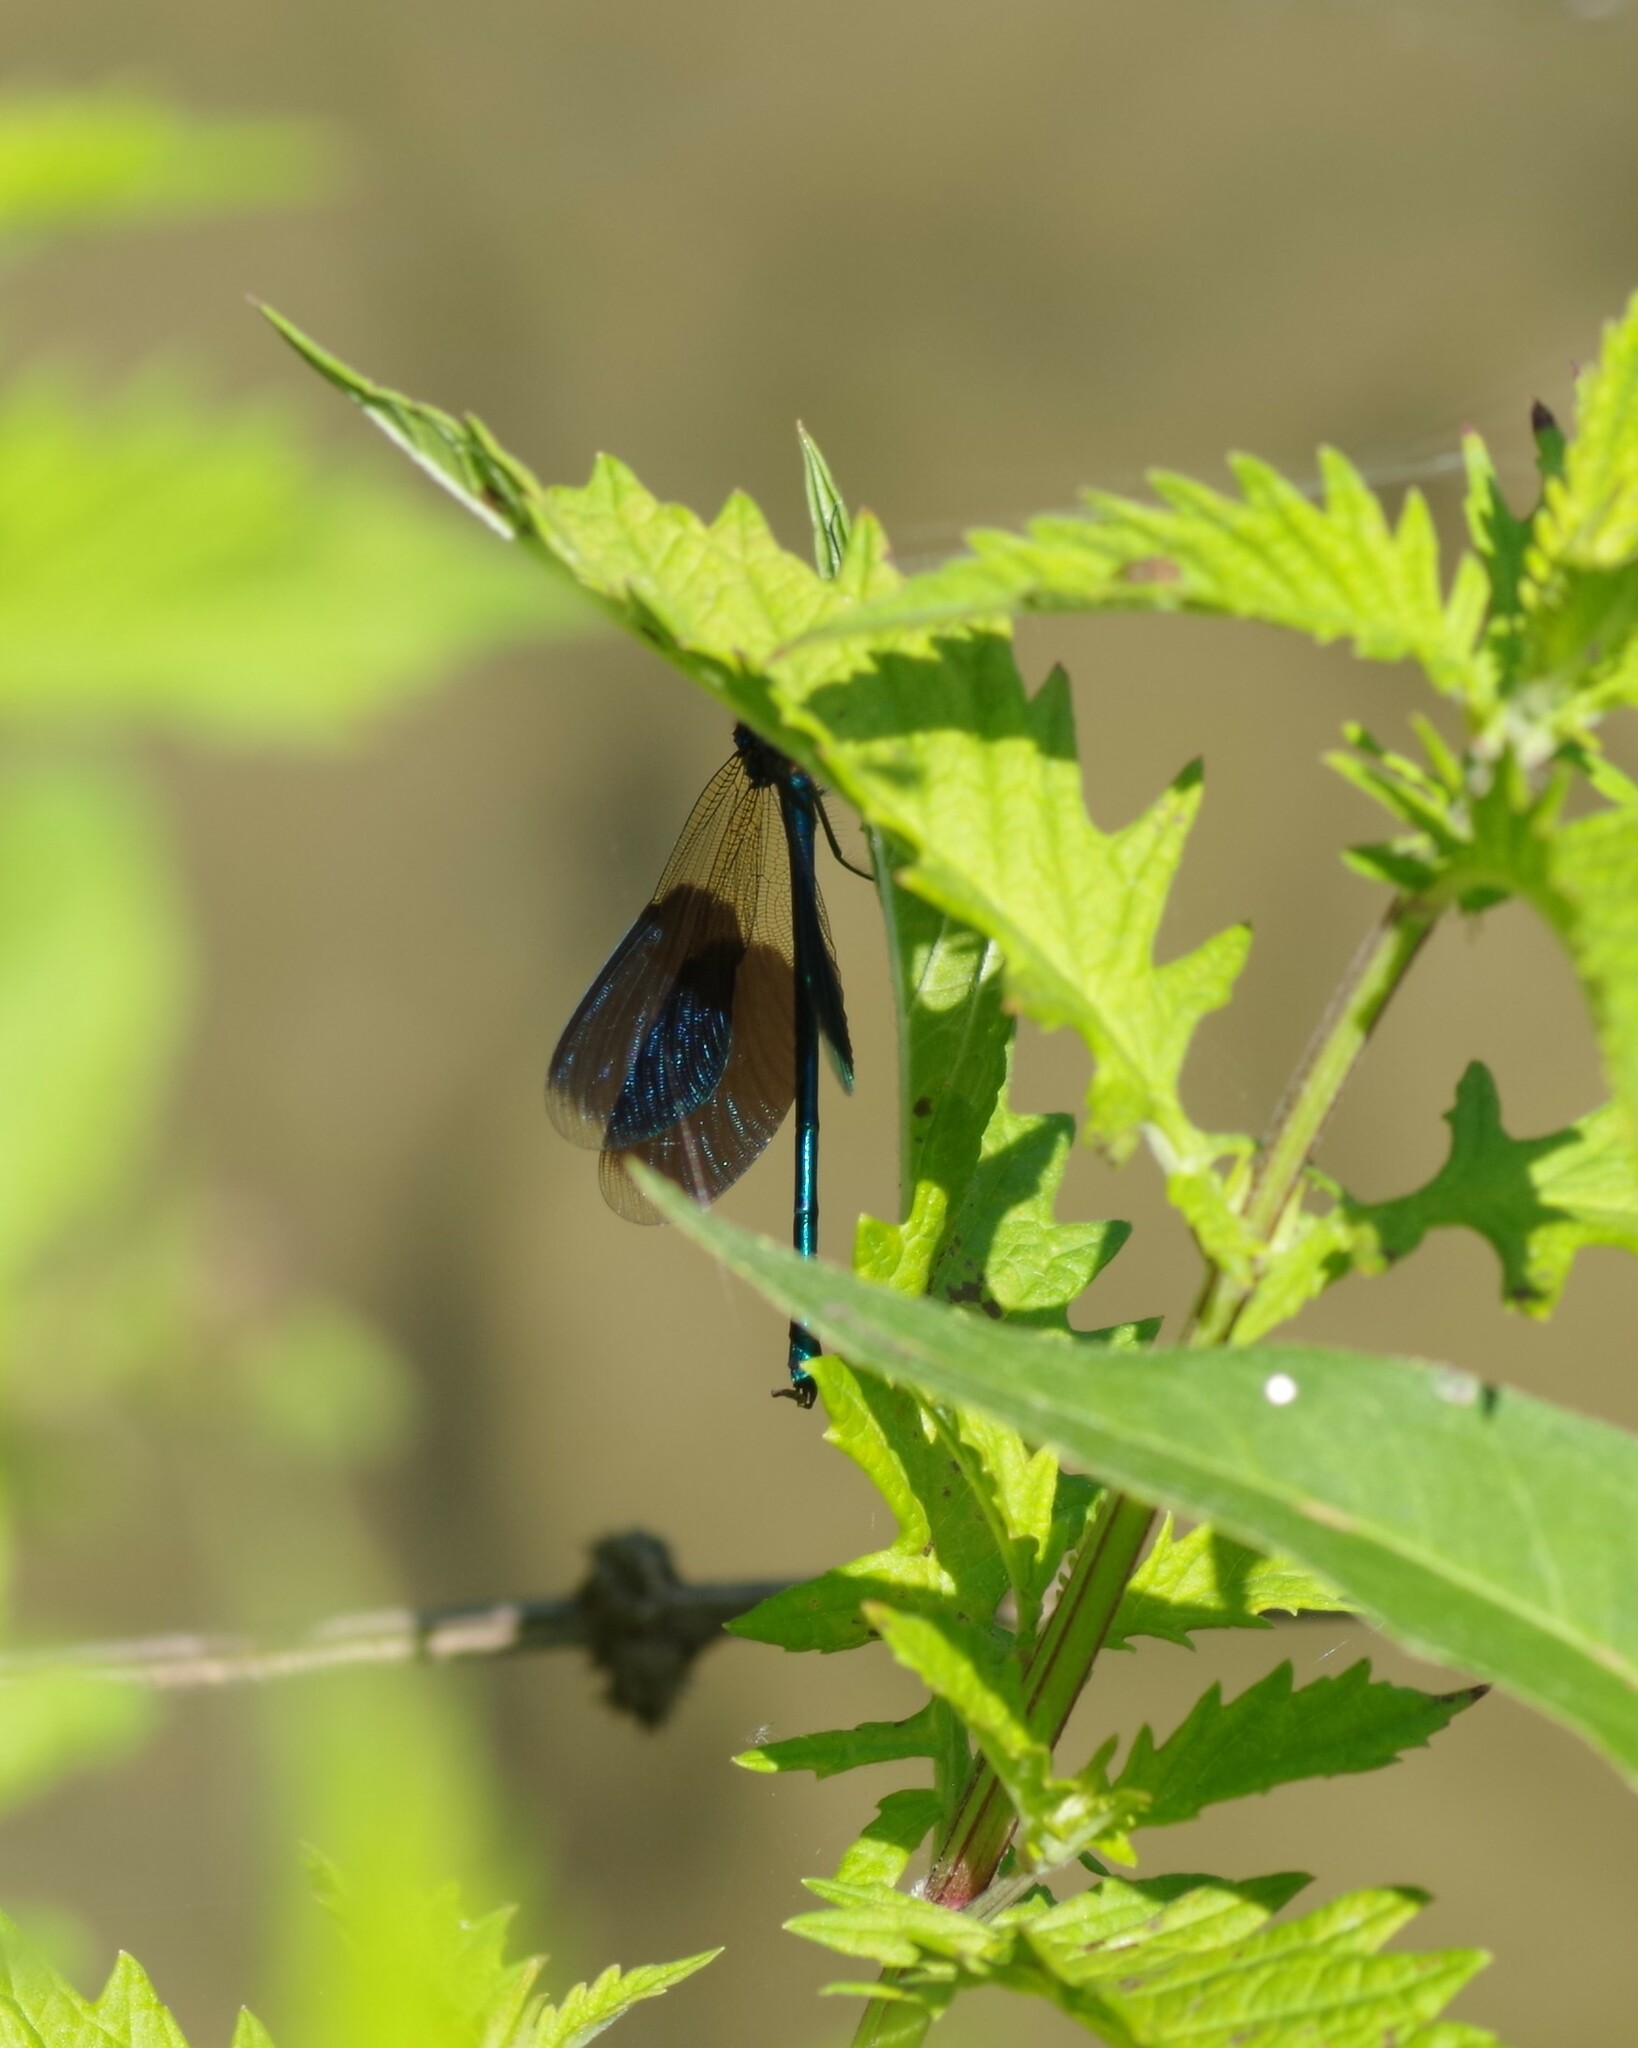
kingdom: Animalia
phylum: Arthropoda
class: Insecta
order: Odonata
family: Calopterygidae
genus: Calopteryx
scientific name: Calopteryx splendens
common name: Banded demoiselle
